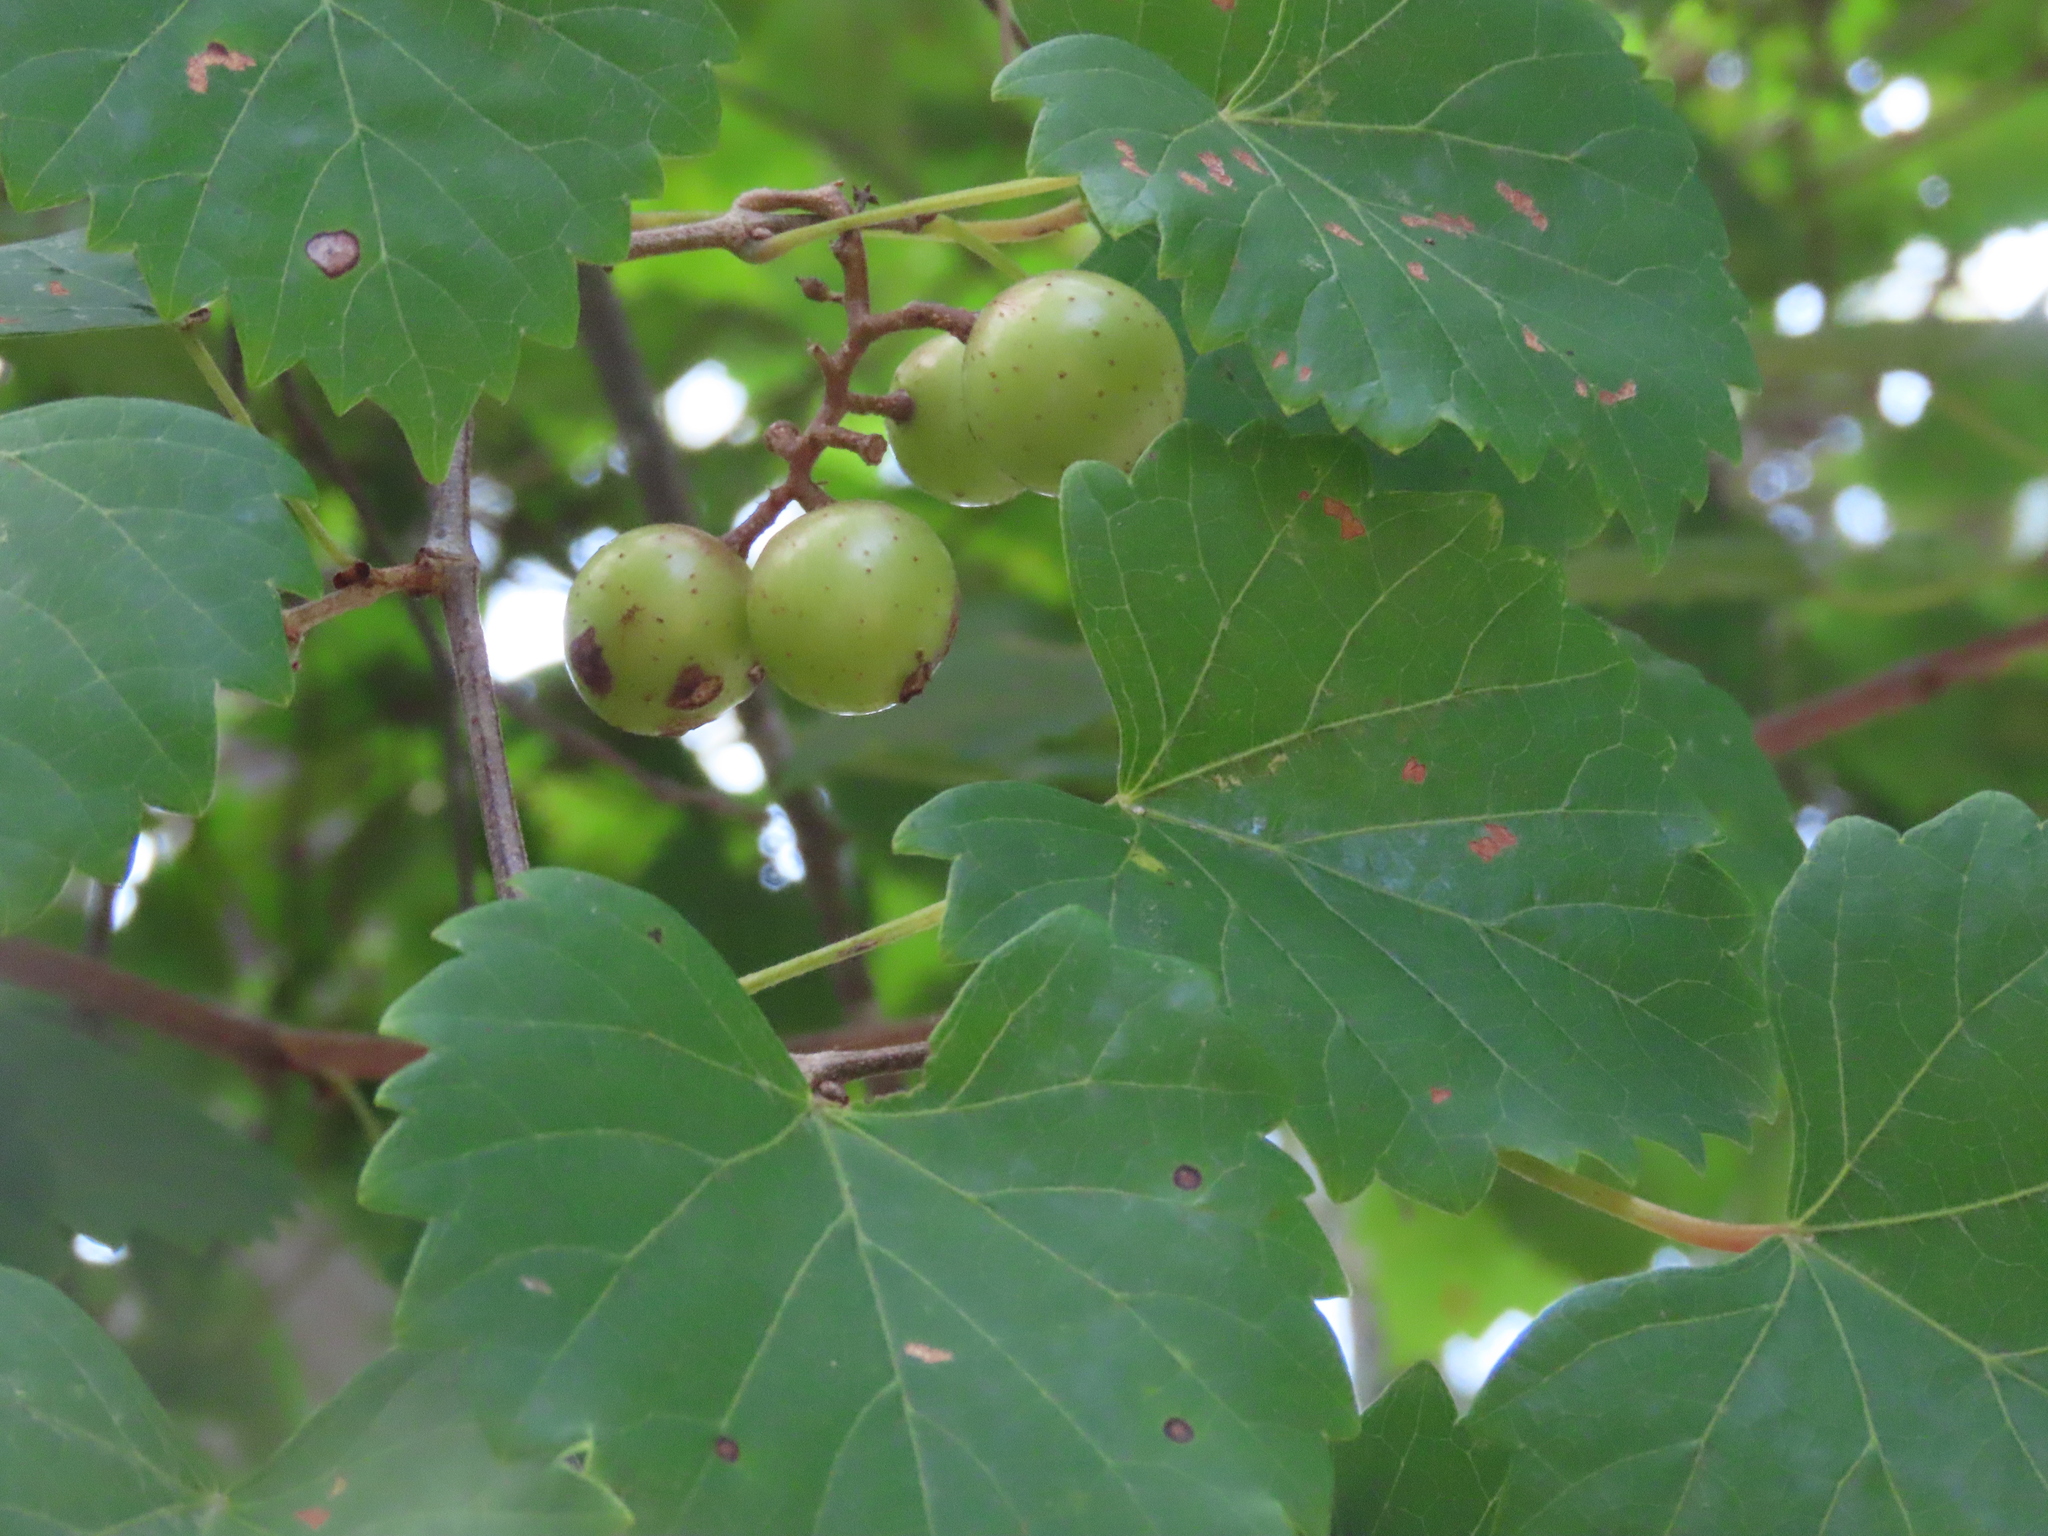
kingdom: Plantae
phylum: Tracheophyta
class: Magnoliopsida
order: Vitales
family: Vitaceae
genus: Vitis
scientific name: Vitis rotundifolia
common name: Muscadine grape
